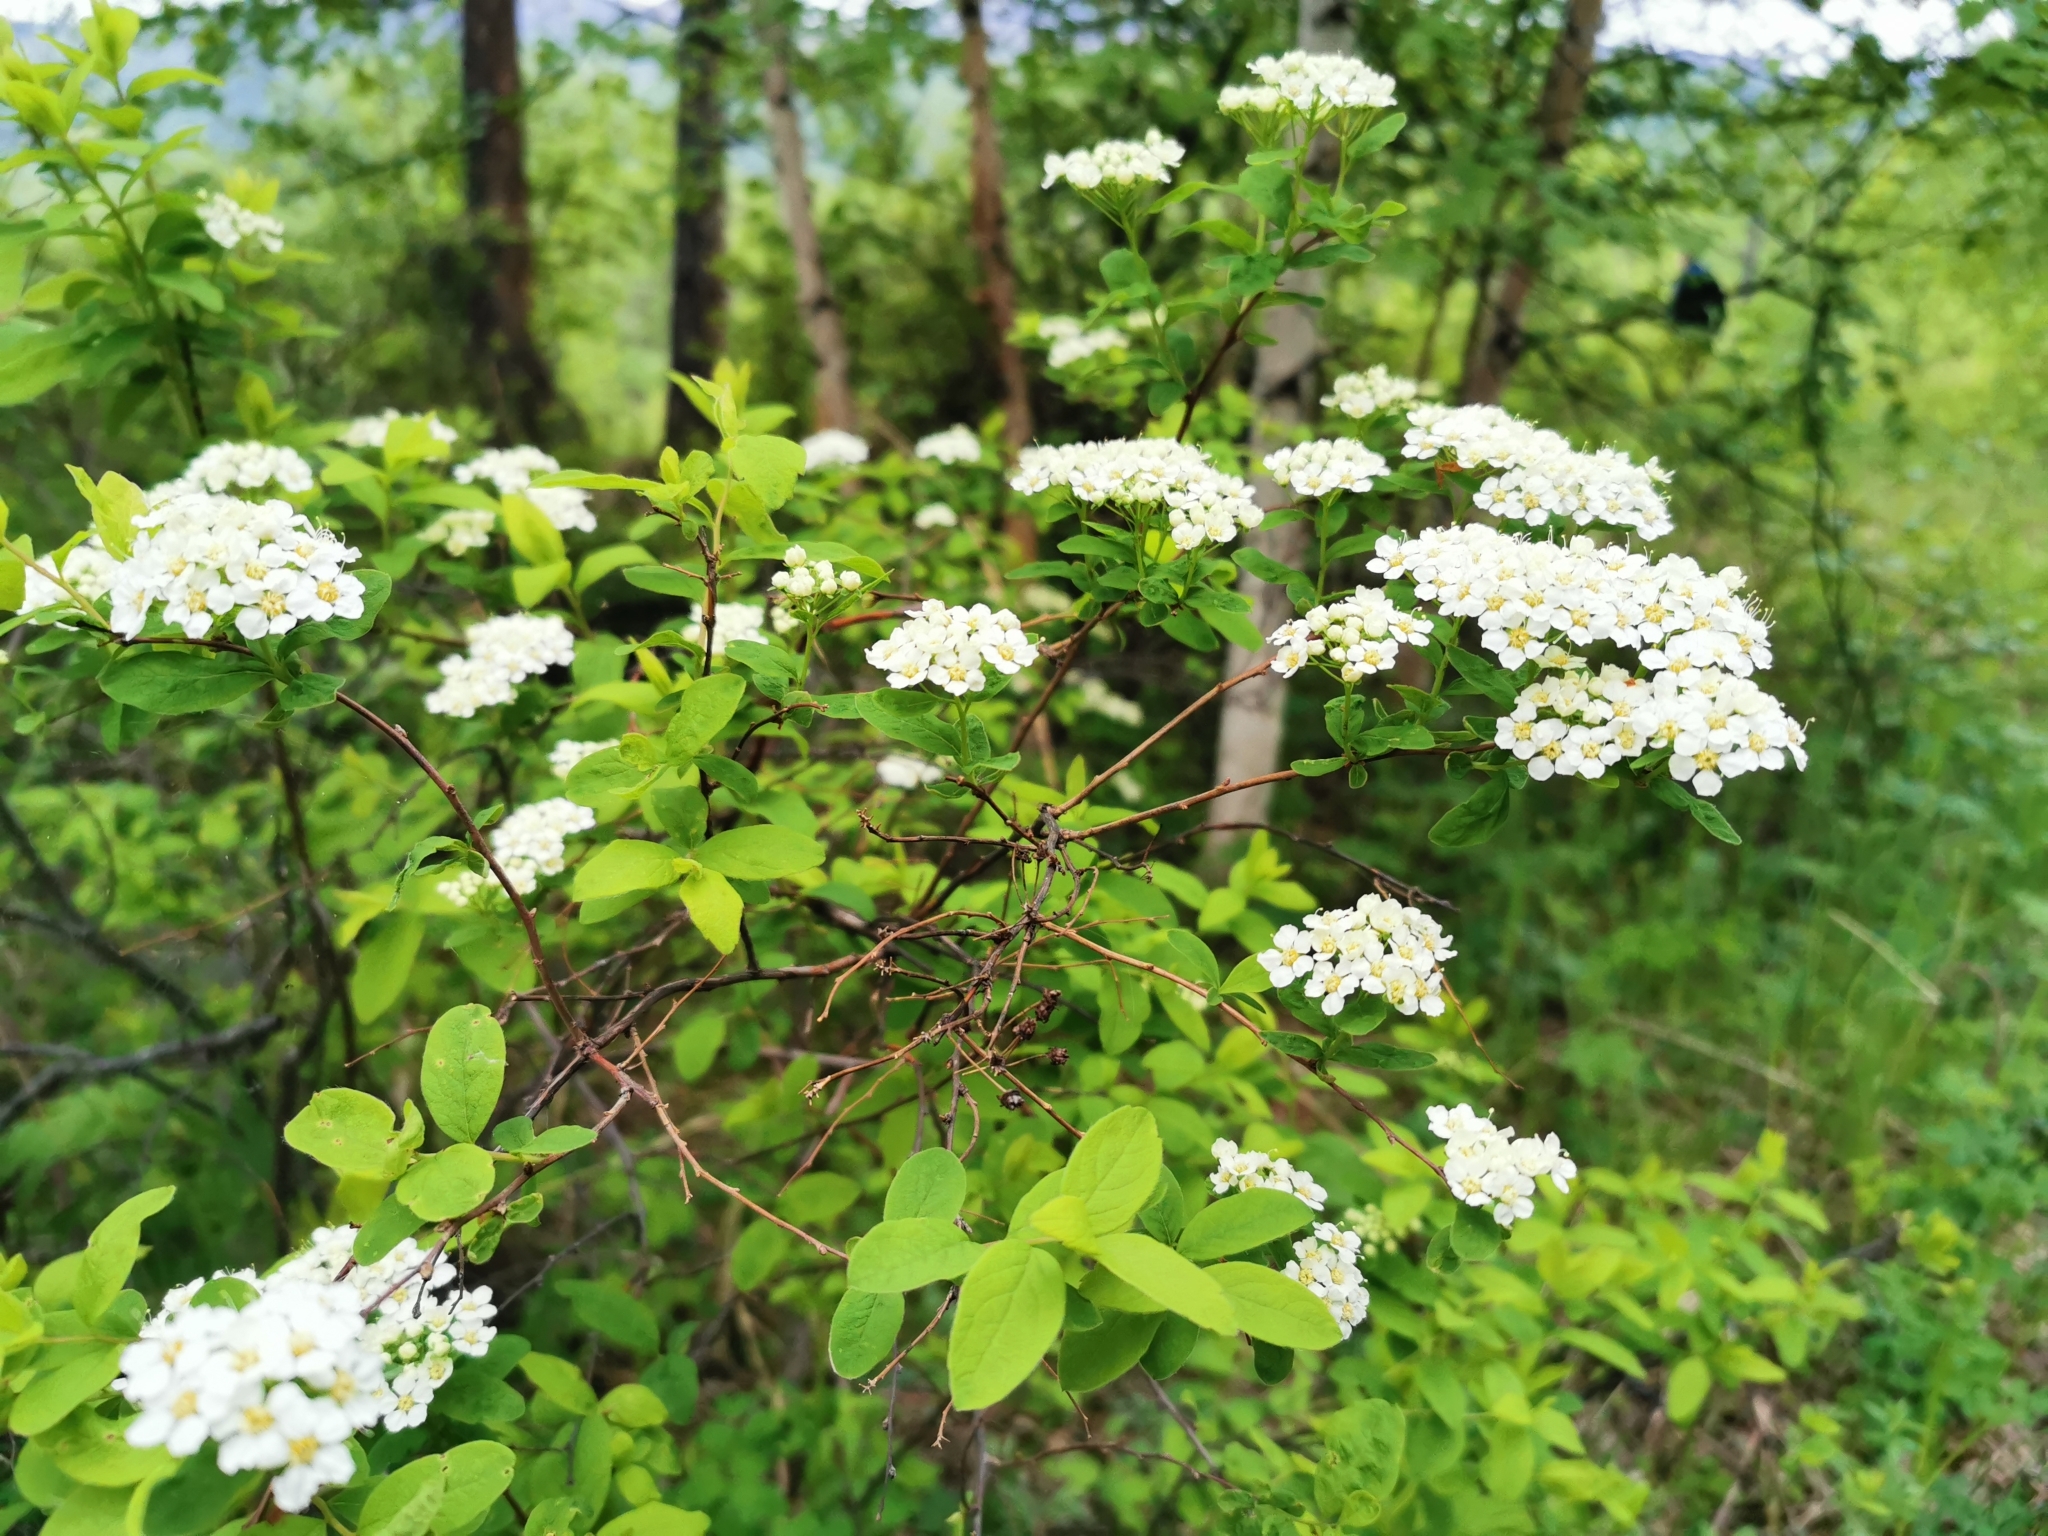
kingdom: Plantae
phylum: Tracheophyta
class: Magnoliopsida
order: Rosales
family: Rosaceae
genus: Spiraea
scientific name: Spiraea media
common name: Russian spiraea
